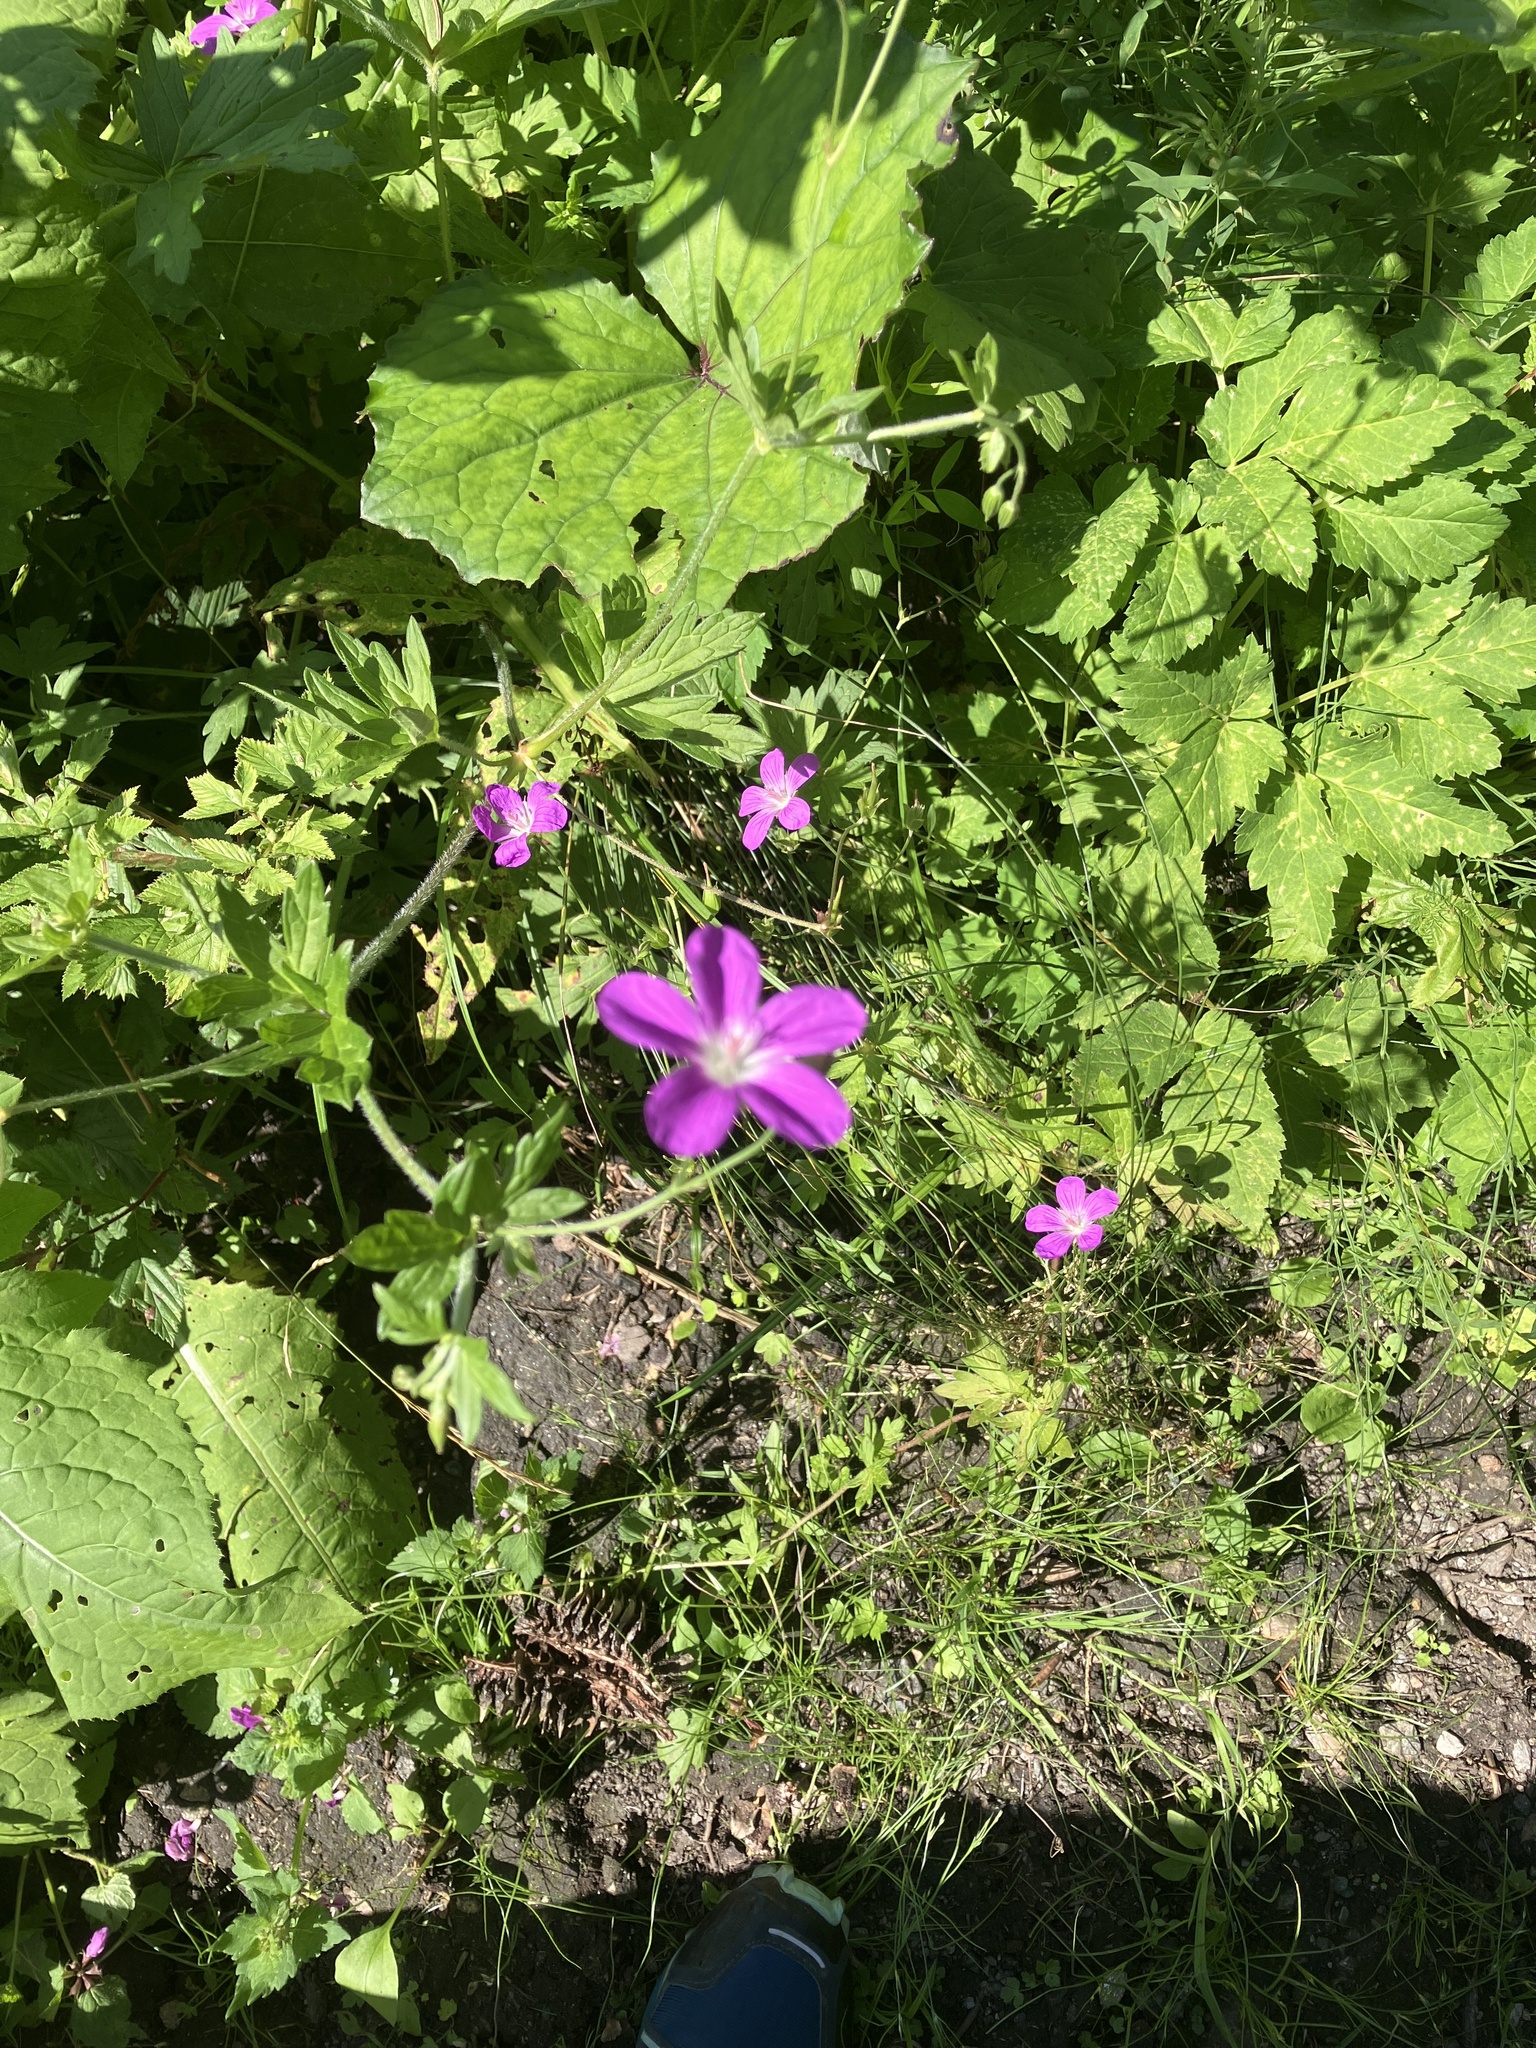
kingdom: Plantae
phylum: Tracheophyta
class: Magnoliopsida
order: Geraniales
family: Geraniaceae
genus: Geranium
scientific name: Geranium palustre
